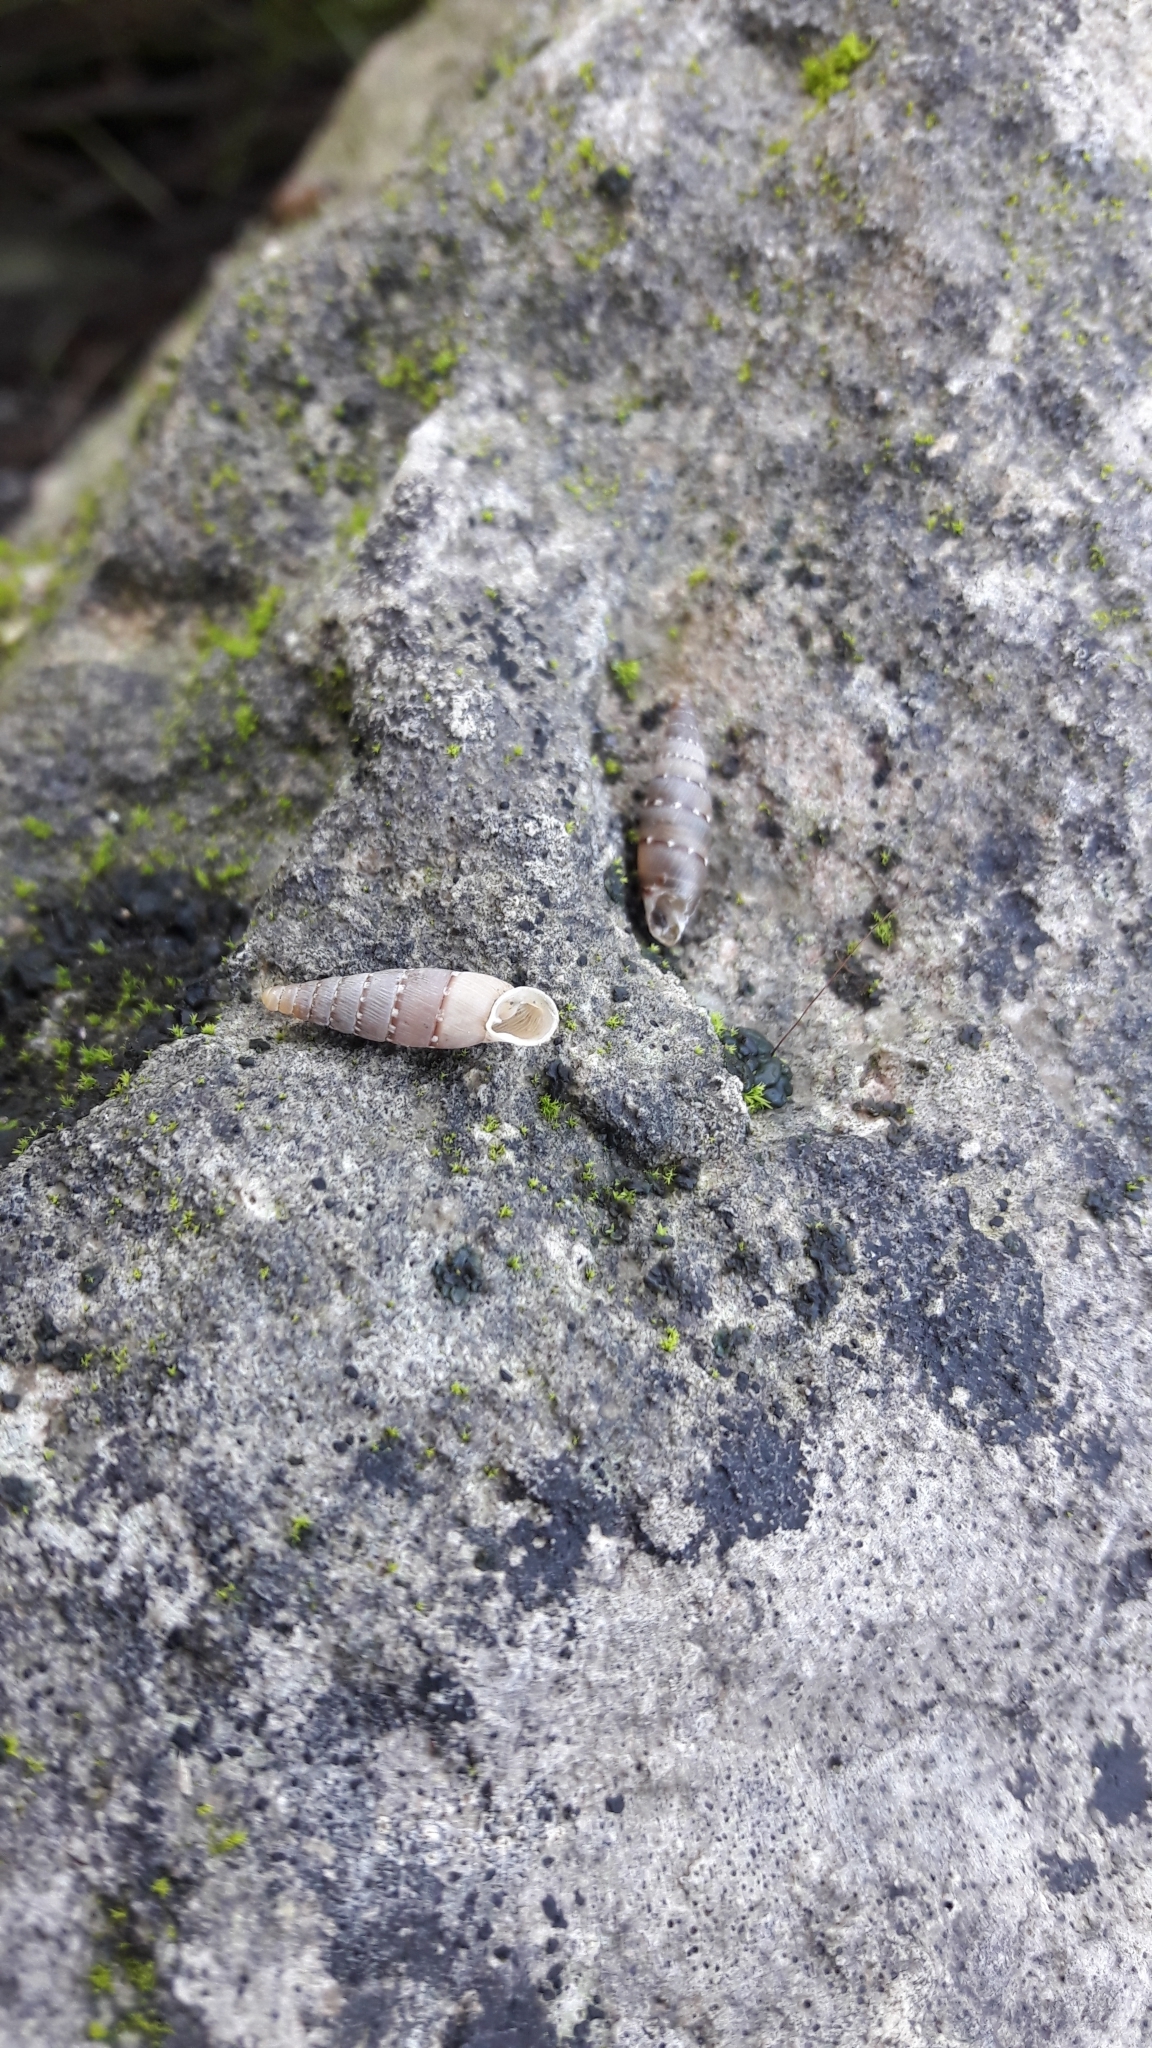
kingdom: Animalia
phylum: Mollusca
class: Gastropoda
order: Stylommatophora
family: Clausiliidae
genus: Papillifera
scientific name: Papillifera papillaris
